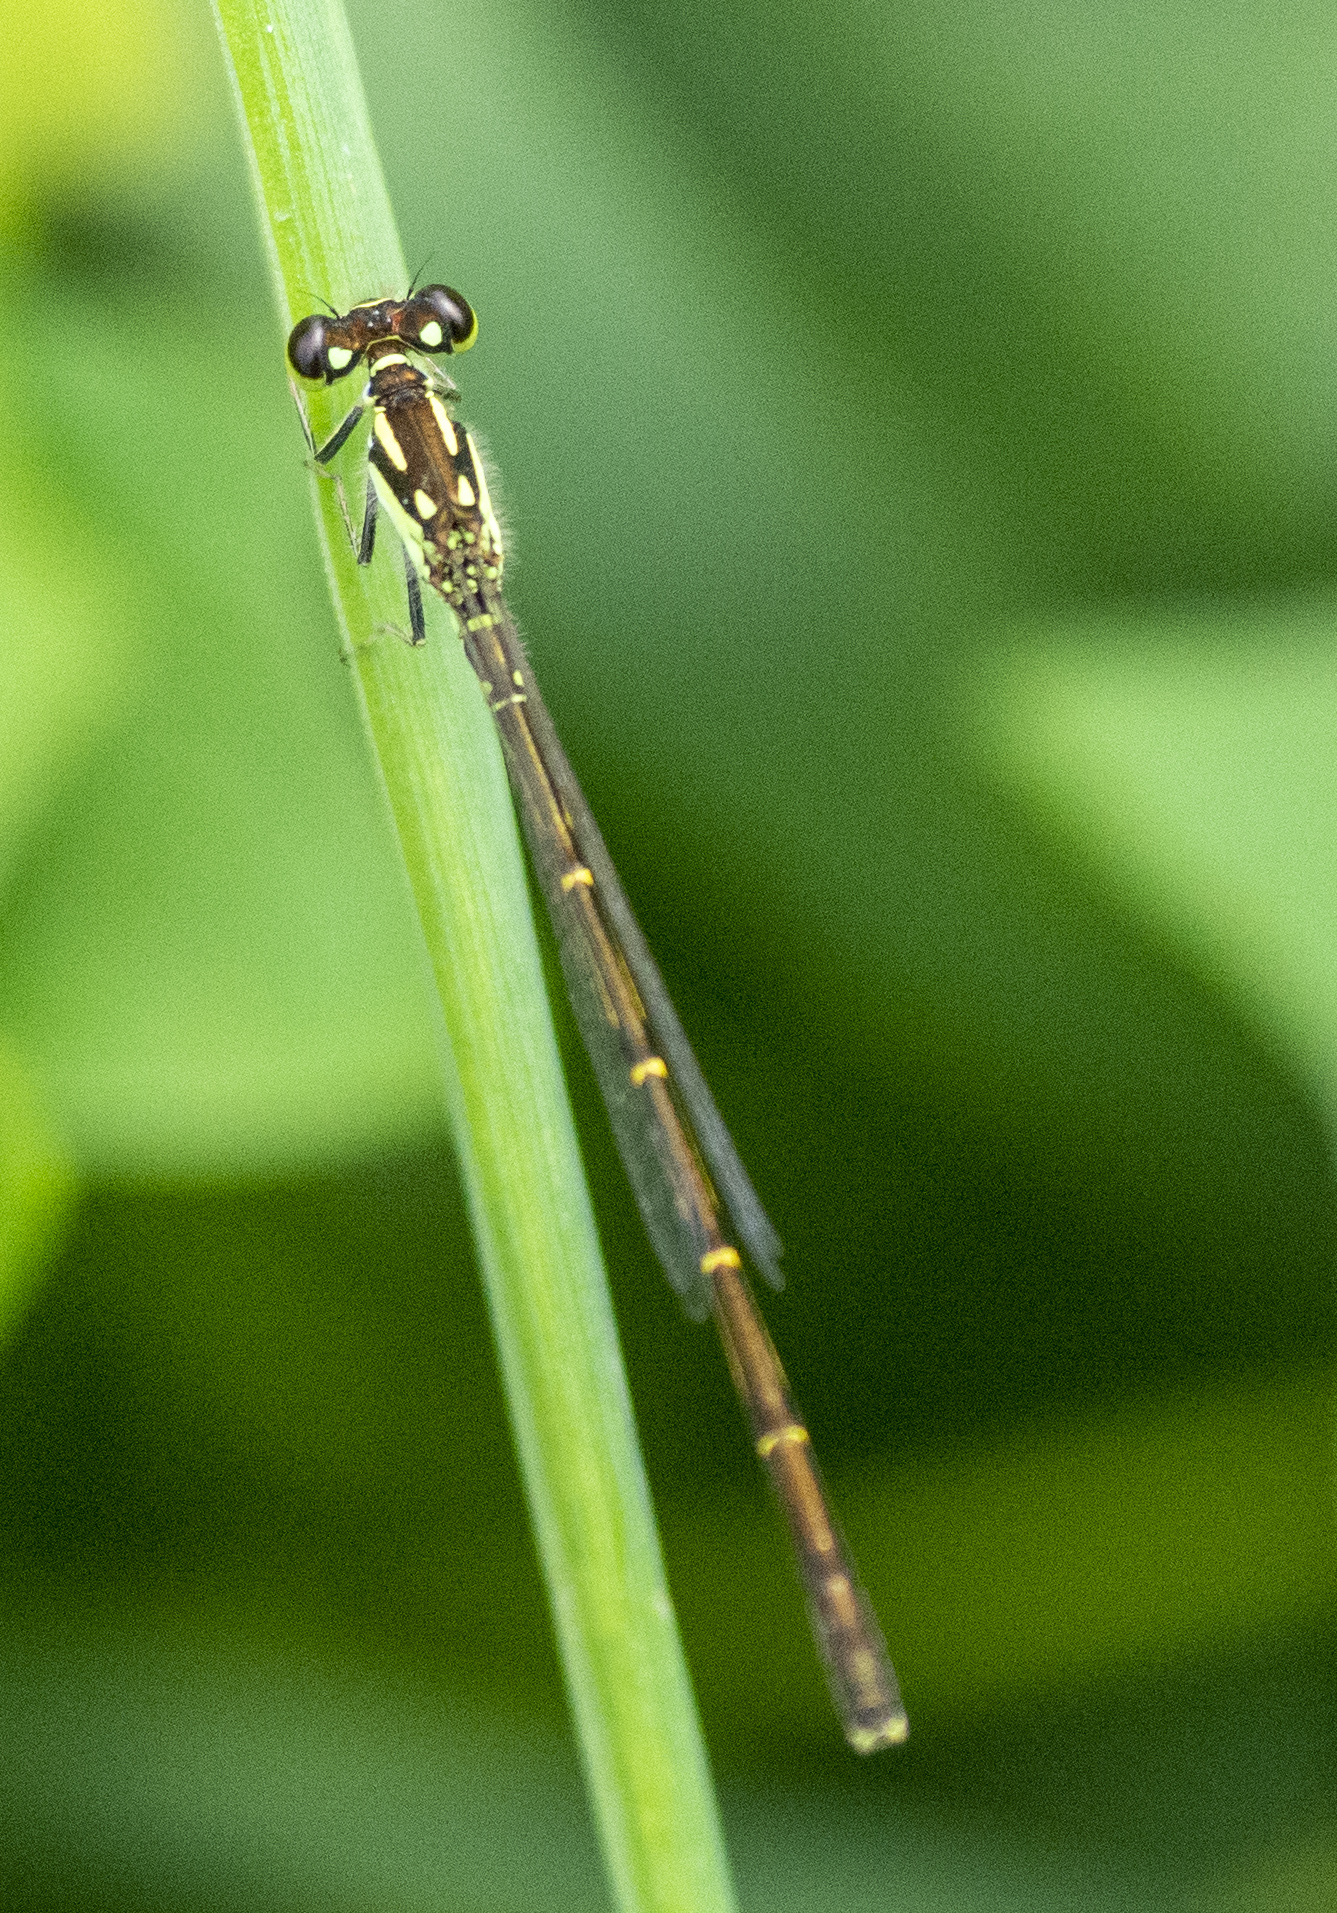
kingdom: Animalia
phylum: Arthropoda
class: Insecta
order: Odonata
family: Coenagrionidae
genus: Ischnura
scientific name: Ischnura posita
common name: Fragile forktail
